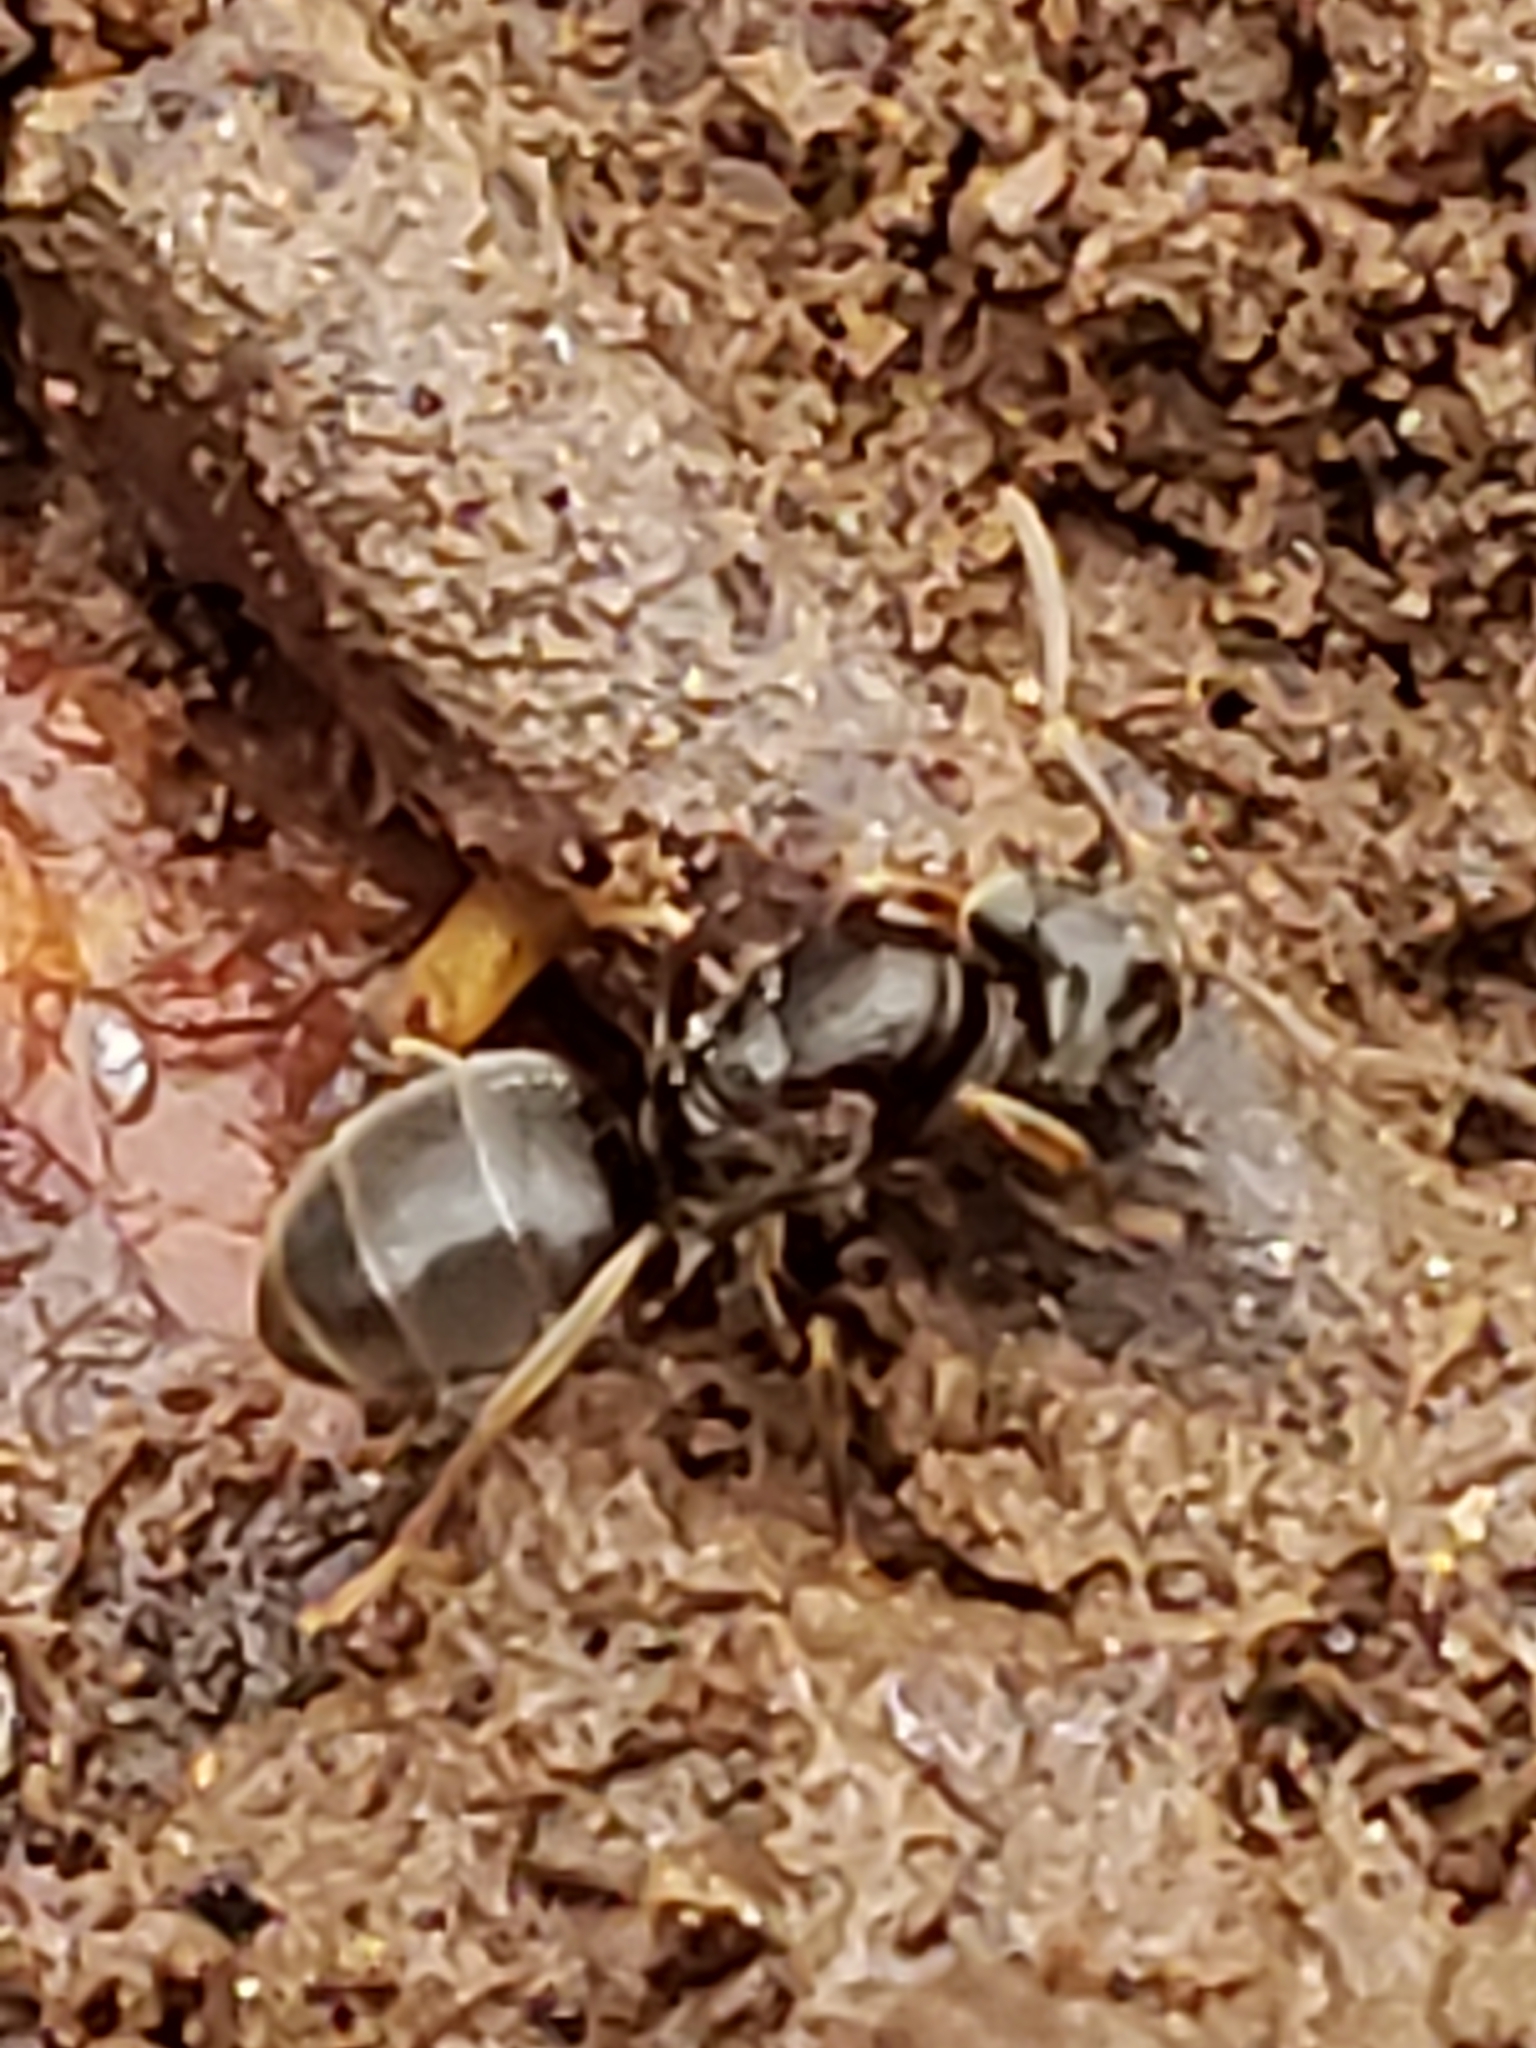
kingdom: Animalia
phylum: Arthropoda
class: Insecta
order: Hymenoptera
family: Formicidae
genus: Lasius
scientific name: Lasius aphidicola
